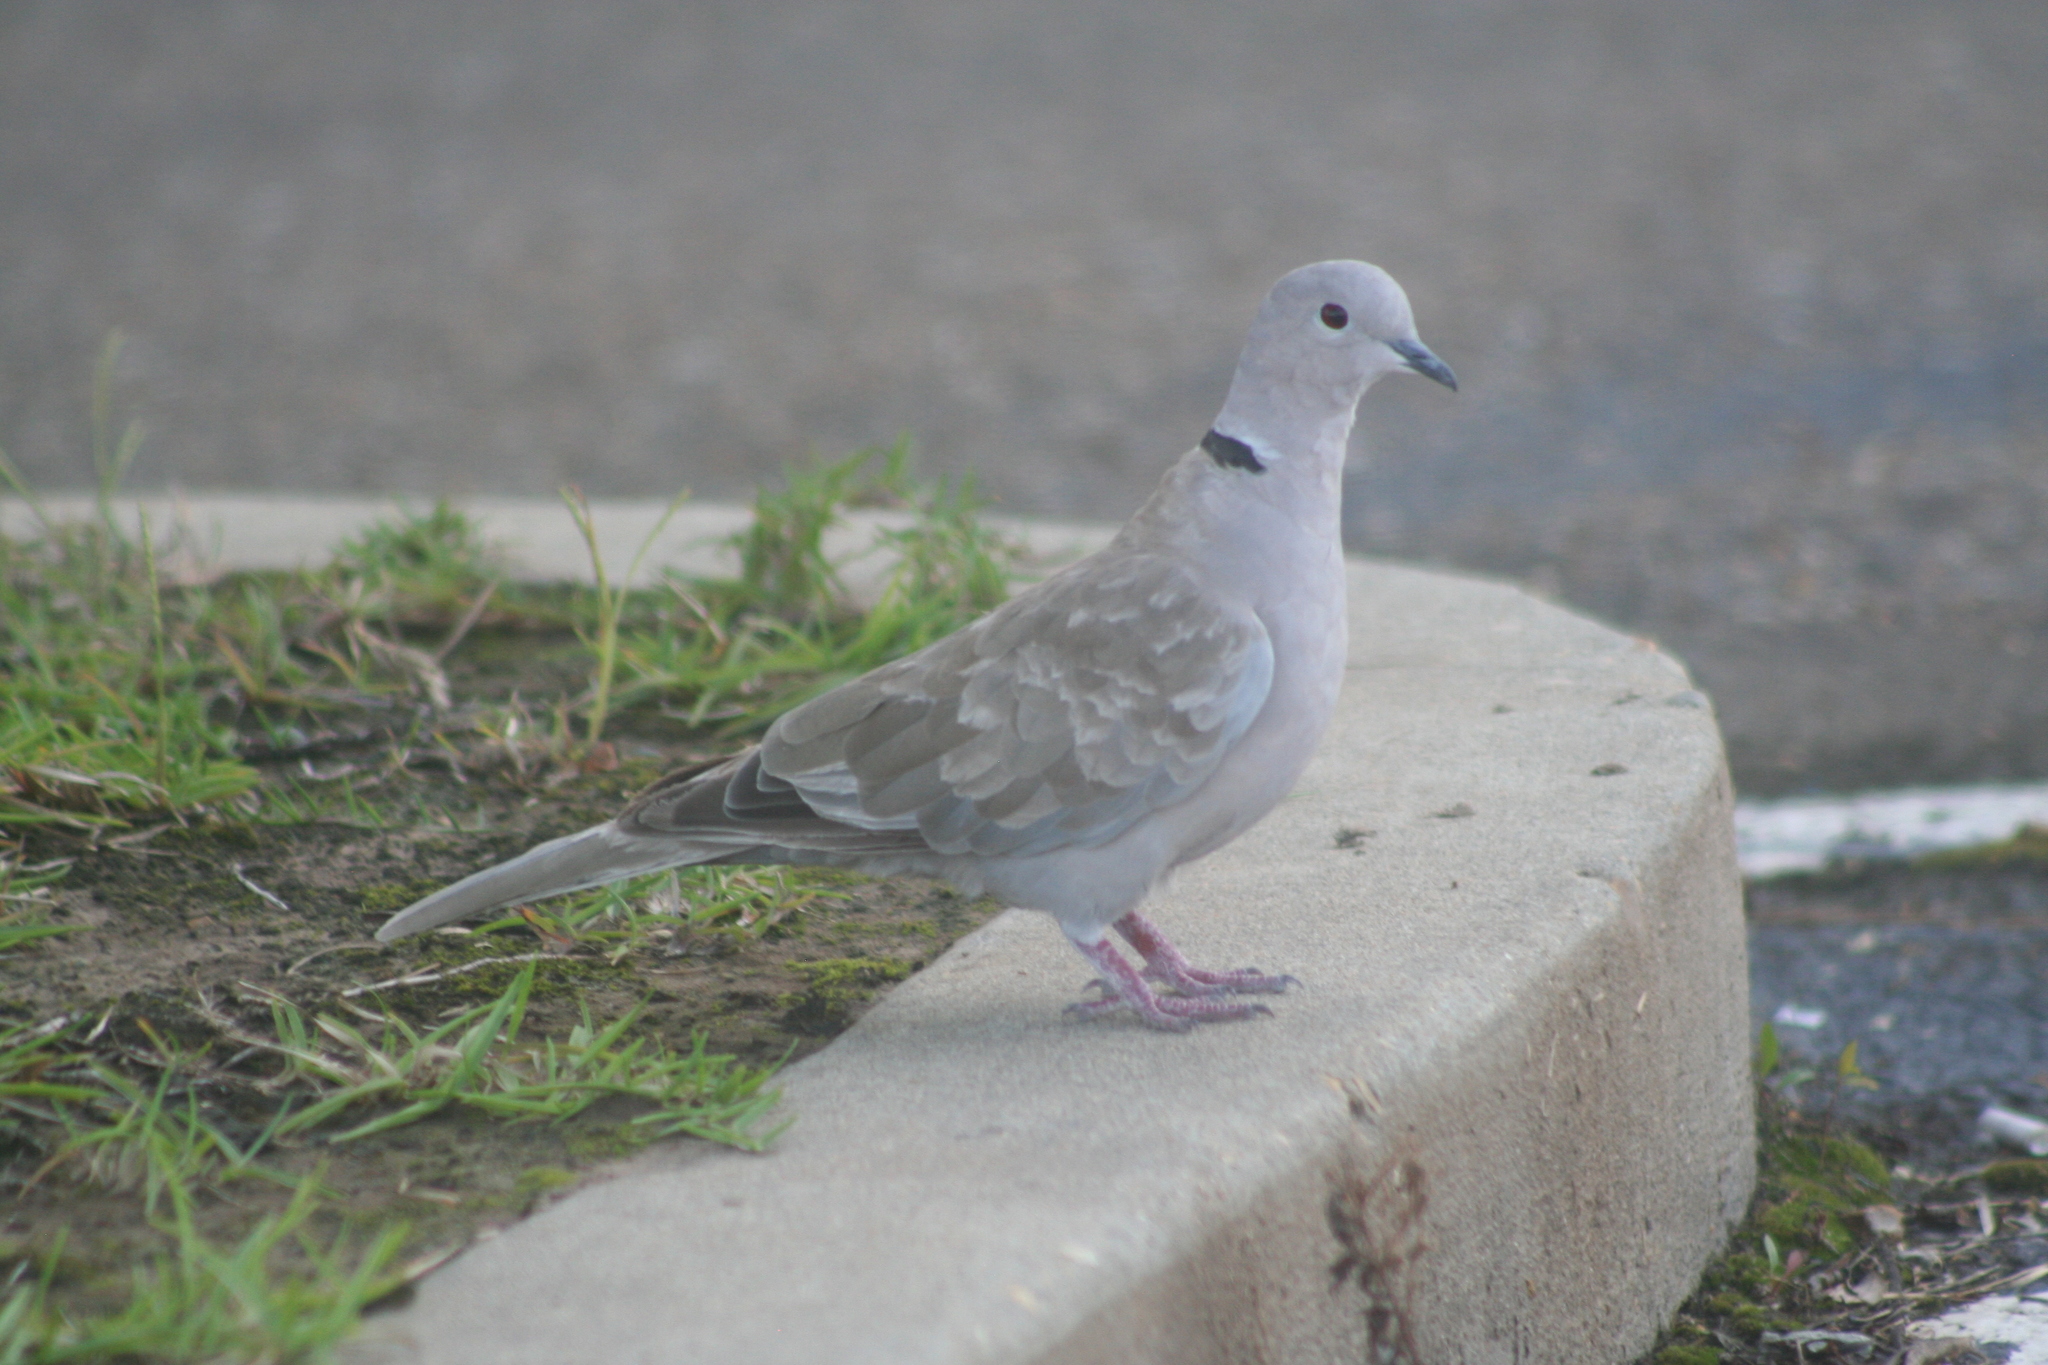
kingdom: Animalia
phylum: Chordata
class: Aves
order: Columbiformes
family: Columbidae
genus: Streptopelia
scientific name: Streptopelia decaocto
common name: Eurasian collared dove
